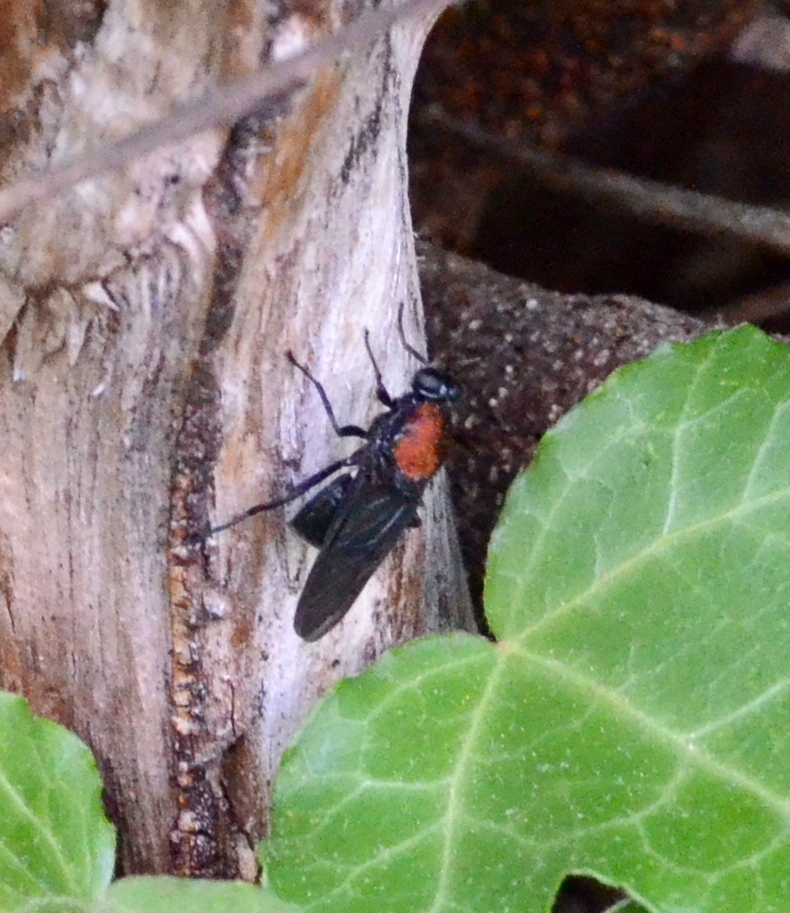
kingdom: Animalia
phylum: Arthropoda
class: Insecta
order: Diptera
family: Stratiomyidae
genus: Clitellaria
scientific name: Clitellaria ephippium
